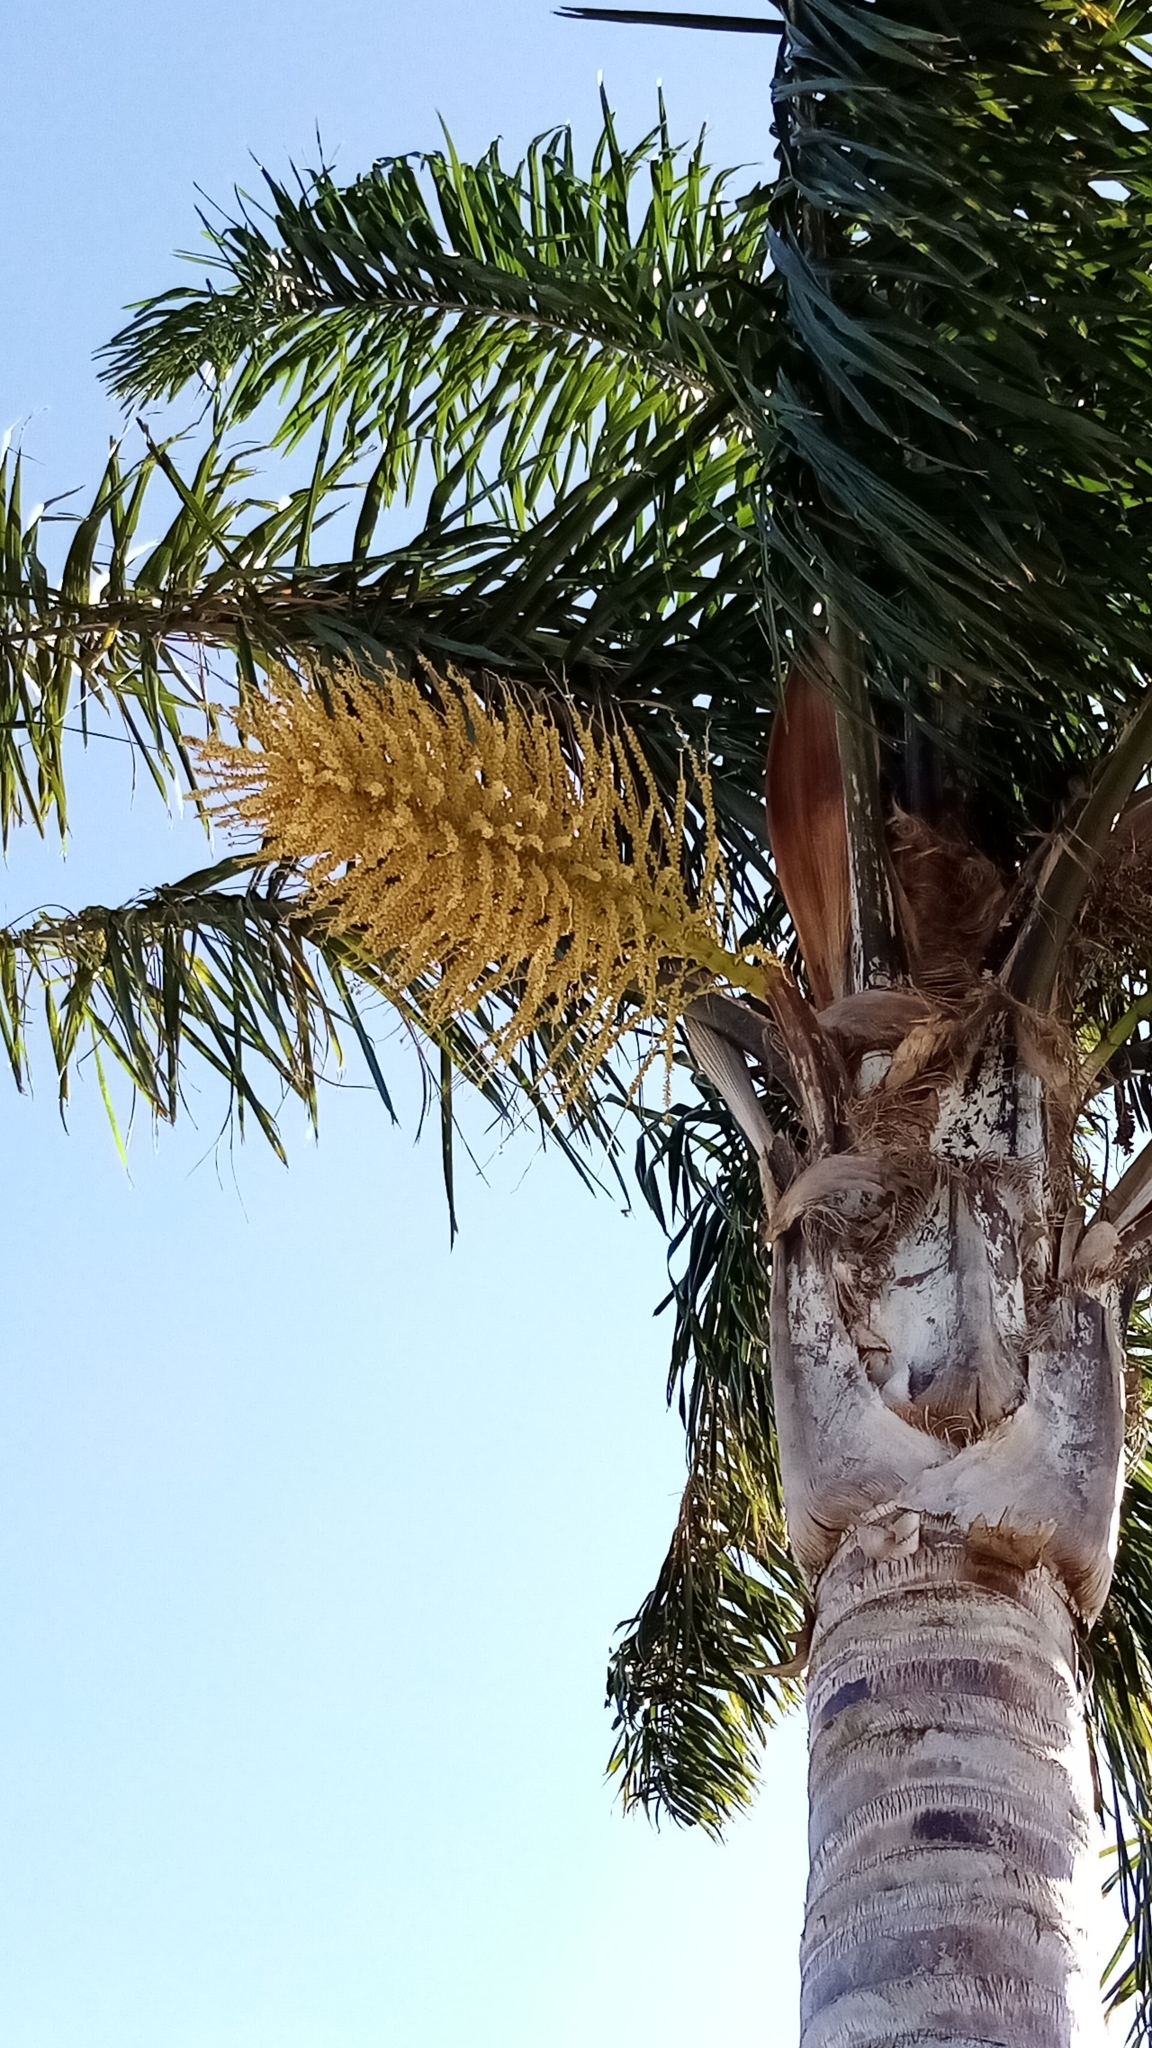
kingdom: Plantae
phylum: Tracheophyta
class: Liliopsida
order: Arecales
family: Arecaceae
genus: Syagrus
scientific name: Syagrus romanzoffiana
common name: Queen palm
